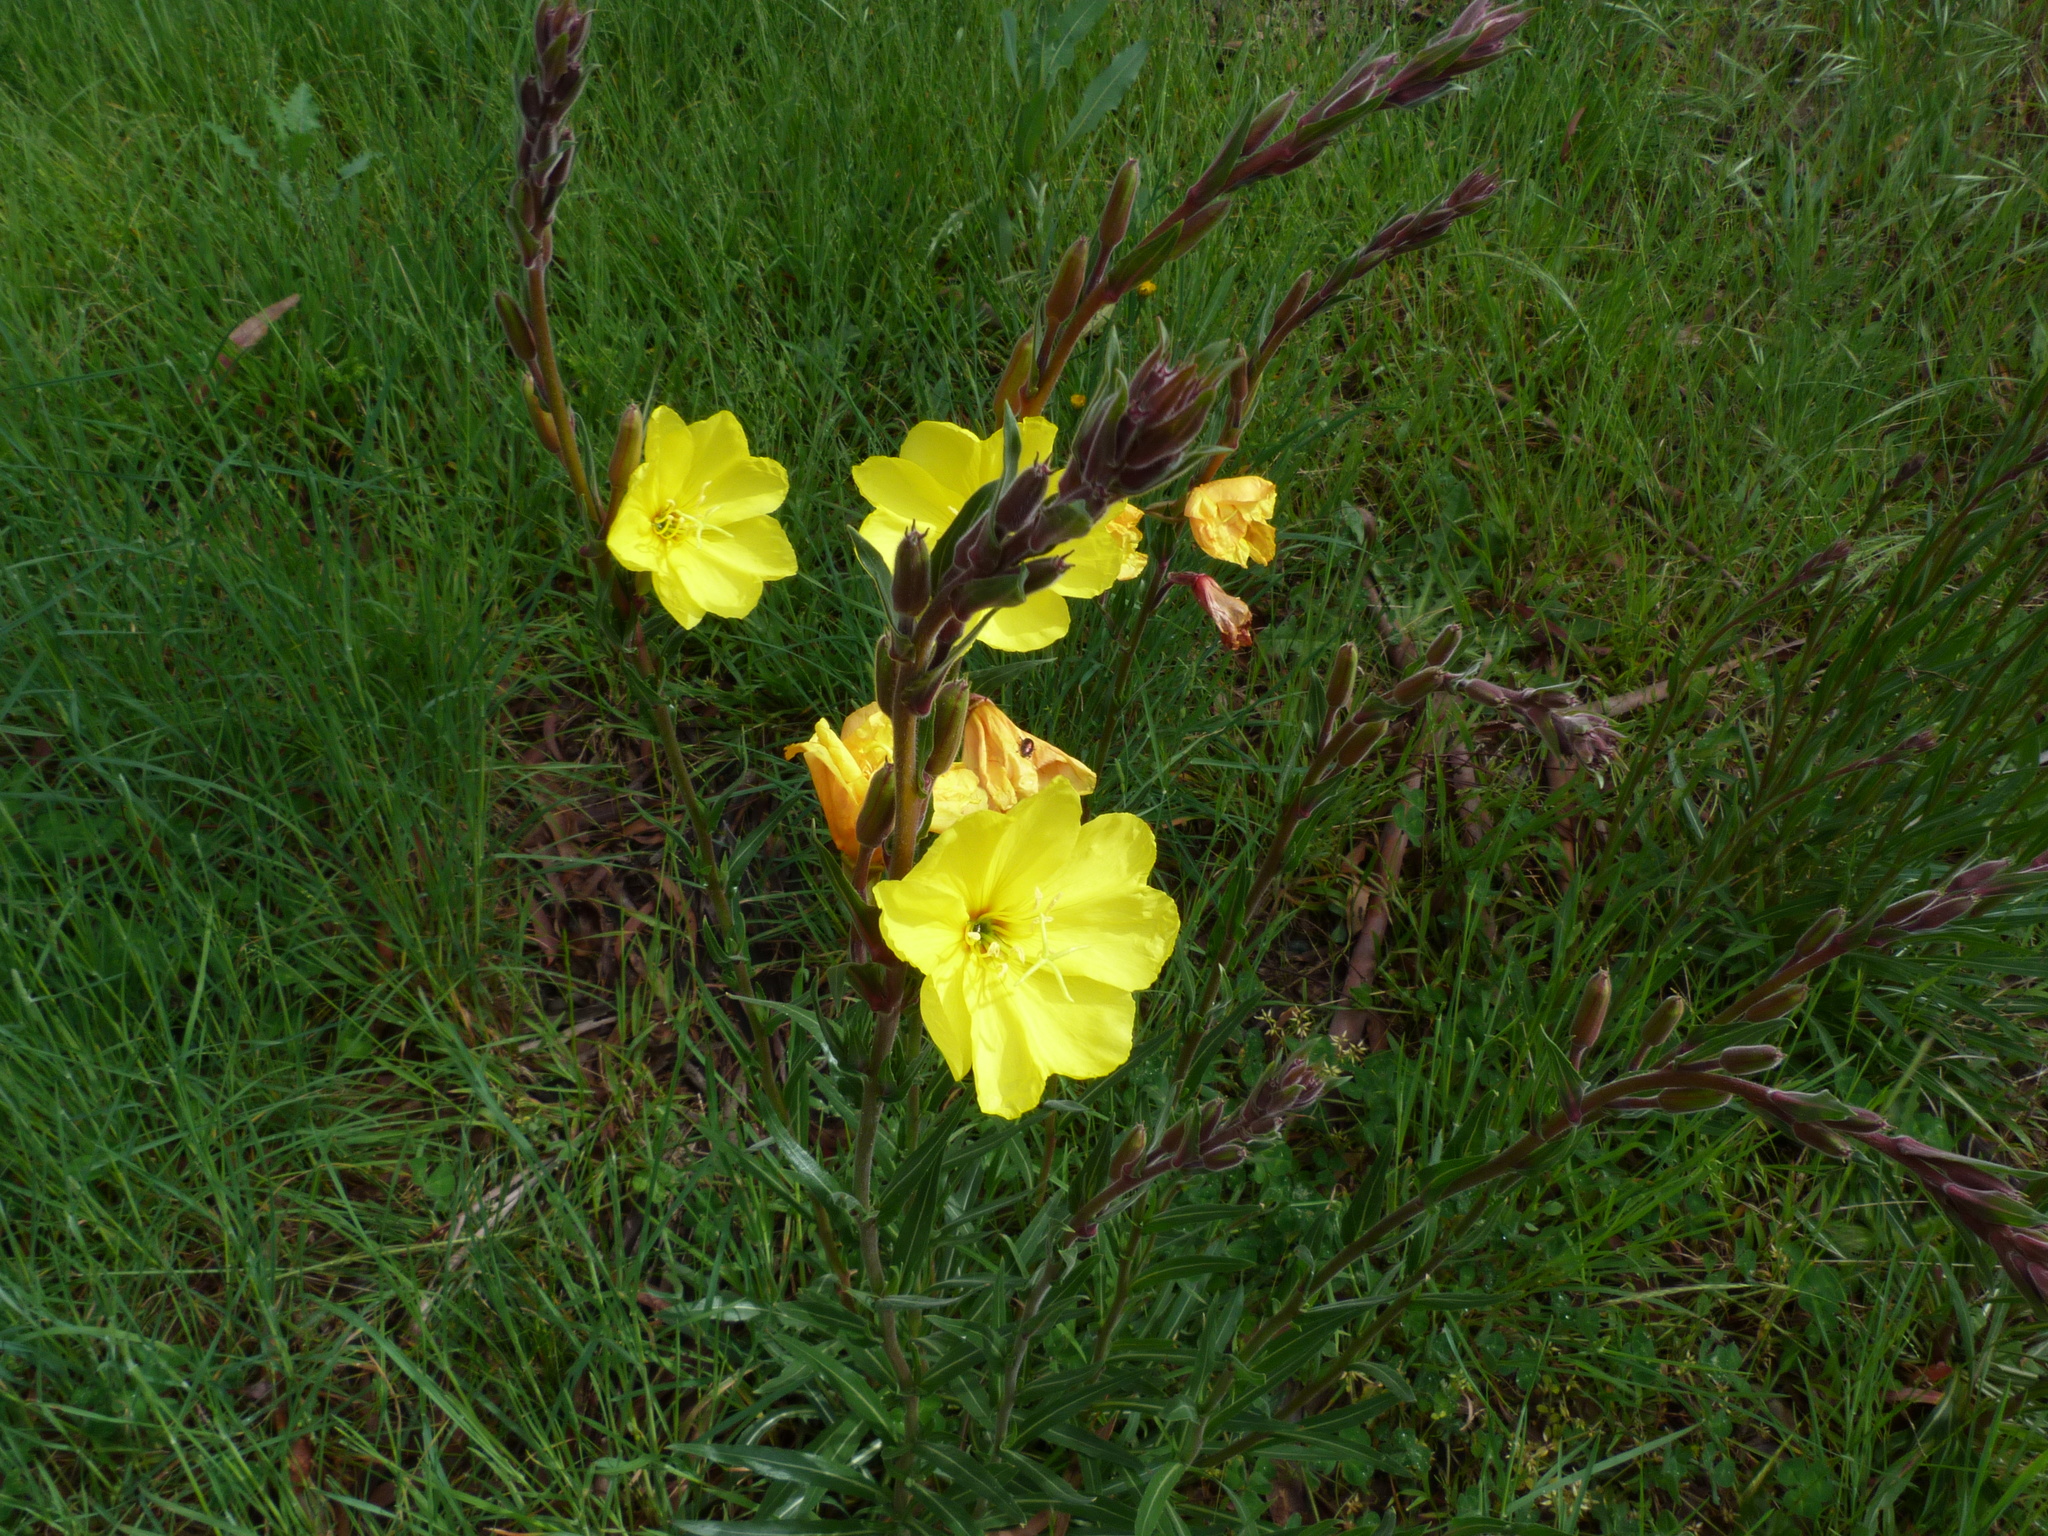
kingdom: Plantae
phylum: Tracheophyta
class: Magnoliopsida
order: Myrtales
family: Onagraceae
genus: Oenothera
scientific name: Oenothera stricta
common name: Fragrant evening-primrose
